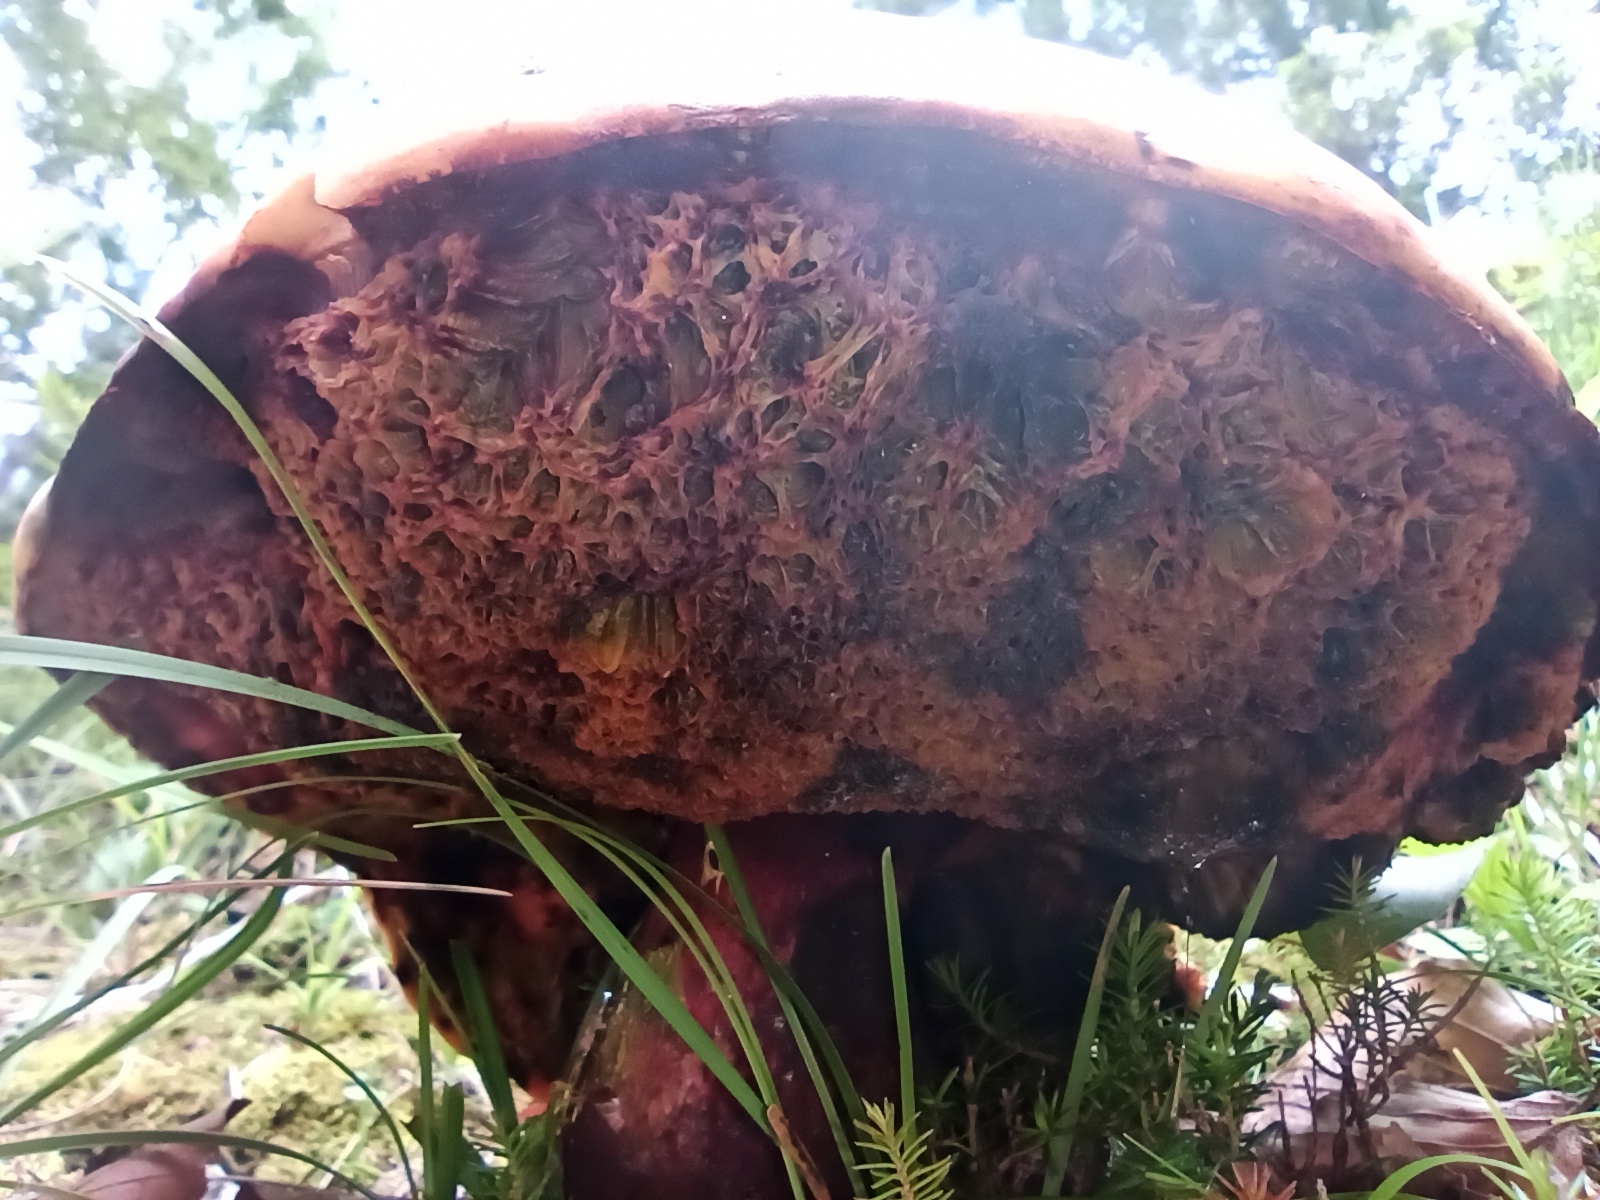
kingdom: Fungi
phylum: Basidiomycota
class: Agaricomycetes
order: Boletales
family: Boletaceae
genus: Cyanoboletus
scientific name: Cyanoboletus pulverulentus
